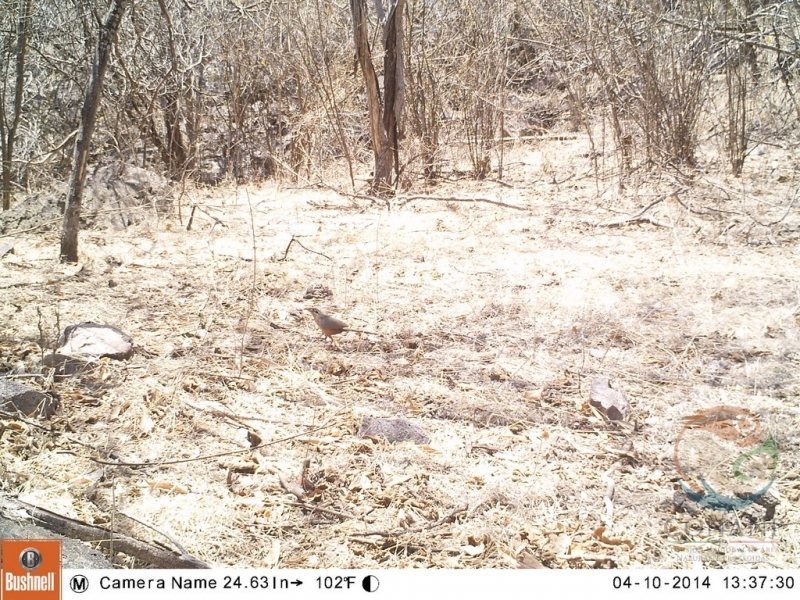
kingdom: Animalia
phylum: Chordata
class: Aves
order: Cuculiformes
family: Cuculidae
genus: Morococcyx
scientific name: Morococcyx erythropygus
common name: Lesser ground-cuckoo
